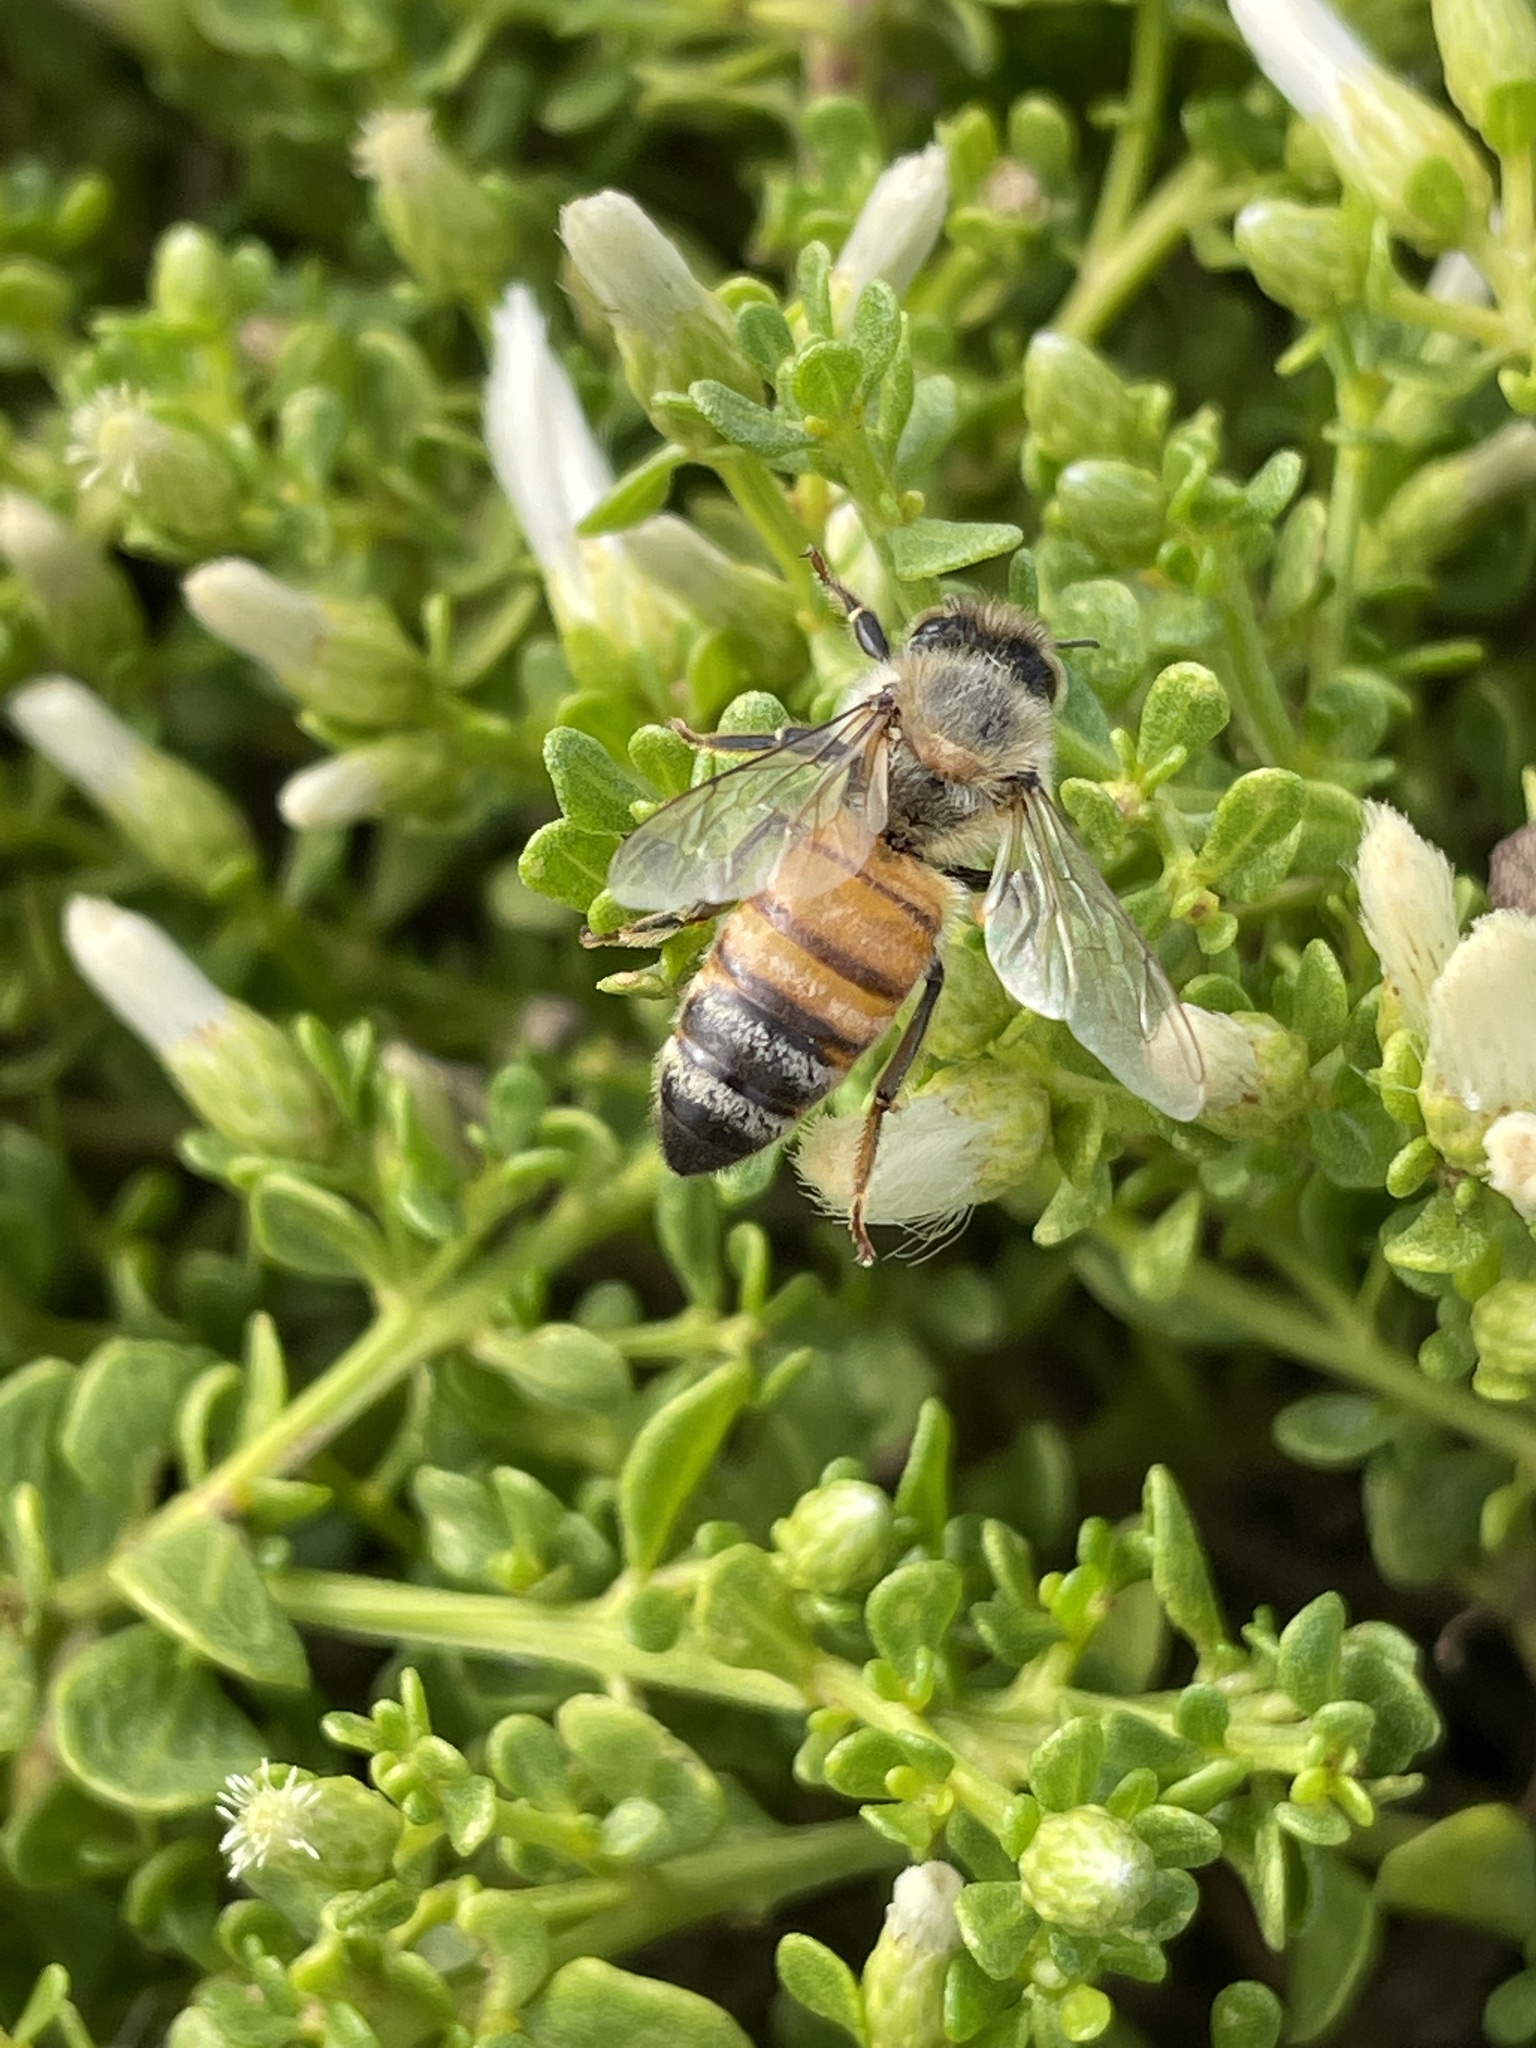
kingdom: Animalia
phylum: Arthropoda
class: Insecta
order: Hymenoptera
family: Apidae
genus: Apis
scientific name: Apis mellifera
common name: Honey bee
